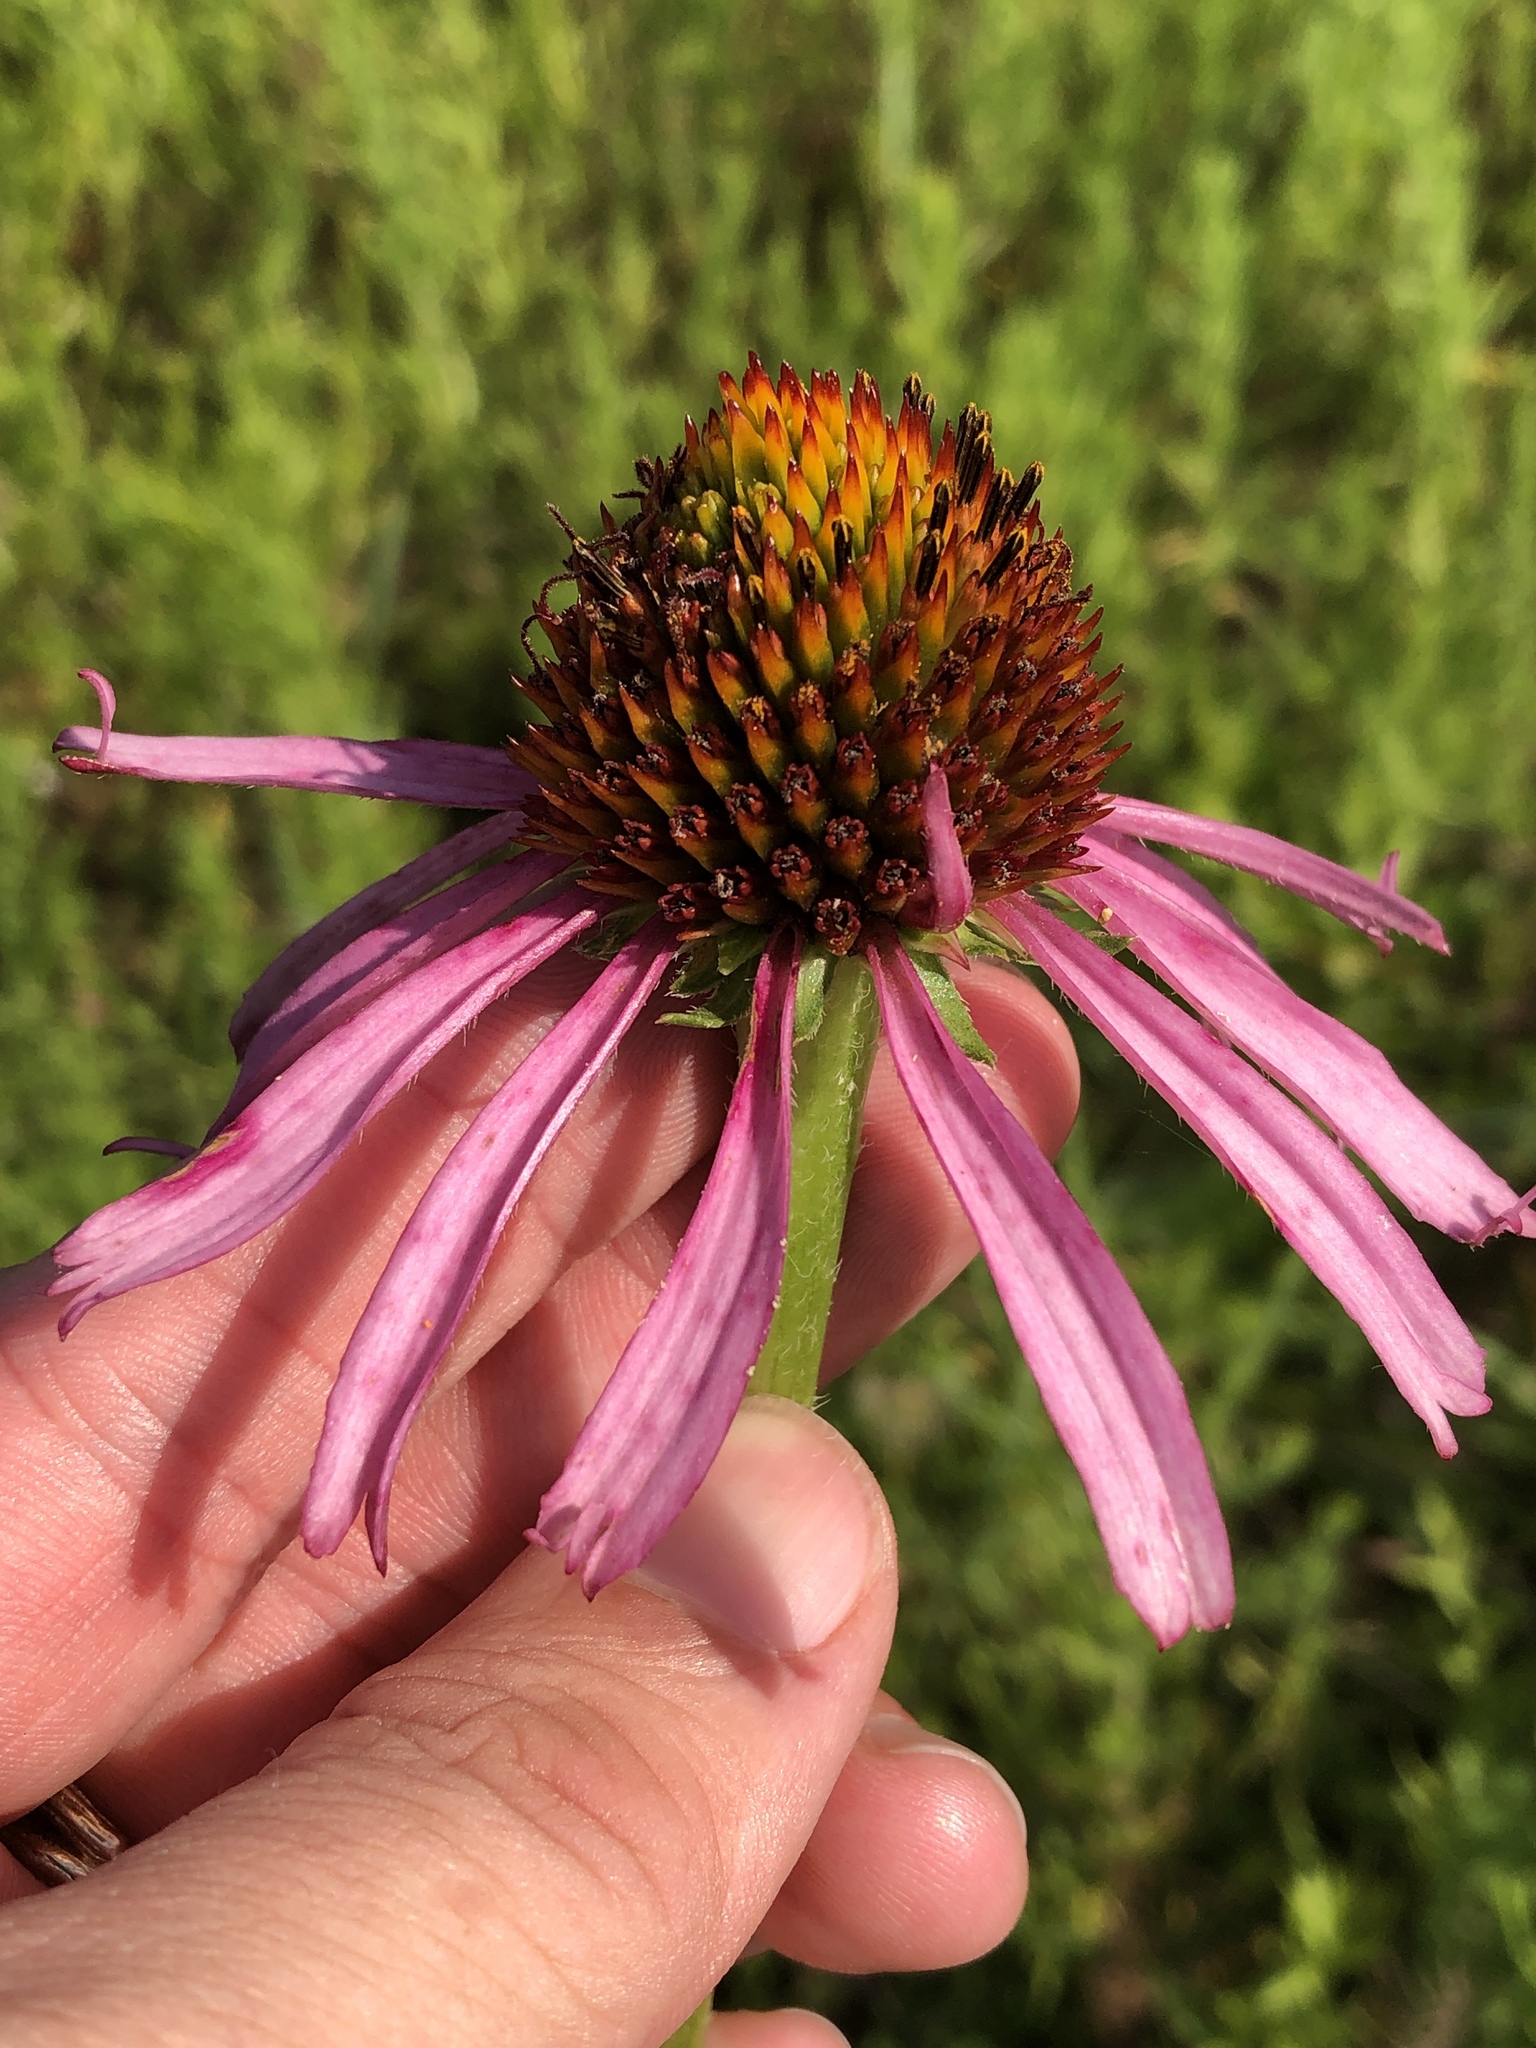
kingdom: Plantae
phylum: Tracheophyta
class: Magnoliopsida
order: Asterales
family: Asteraceae
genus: Echinacea
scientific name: Echinacea atrorubens
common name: Topeka purple-coneflower
